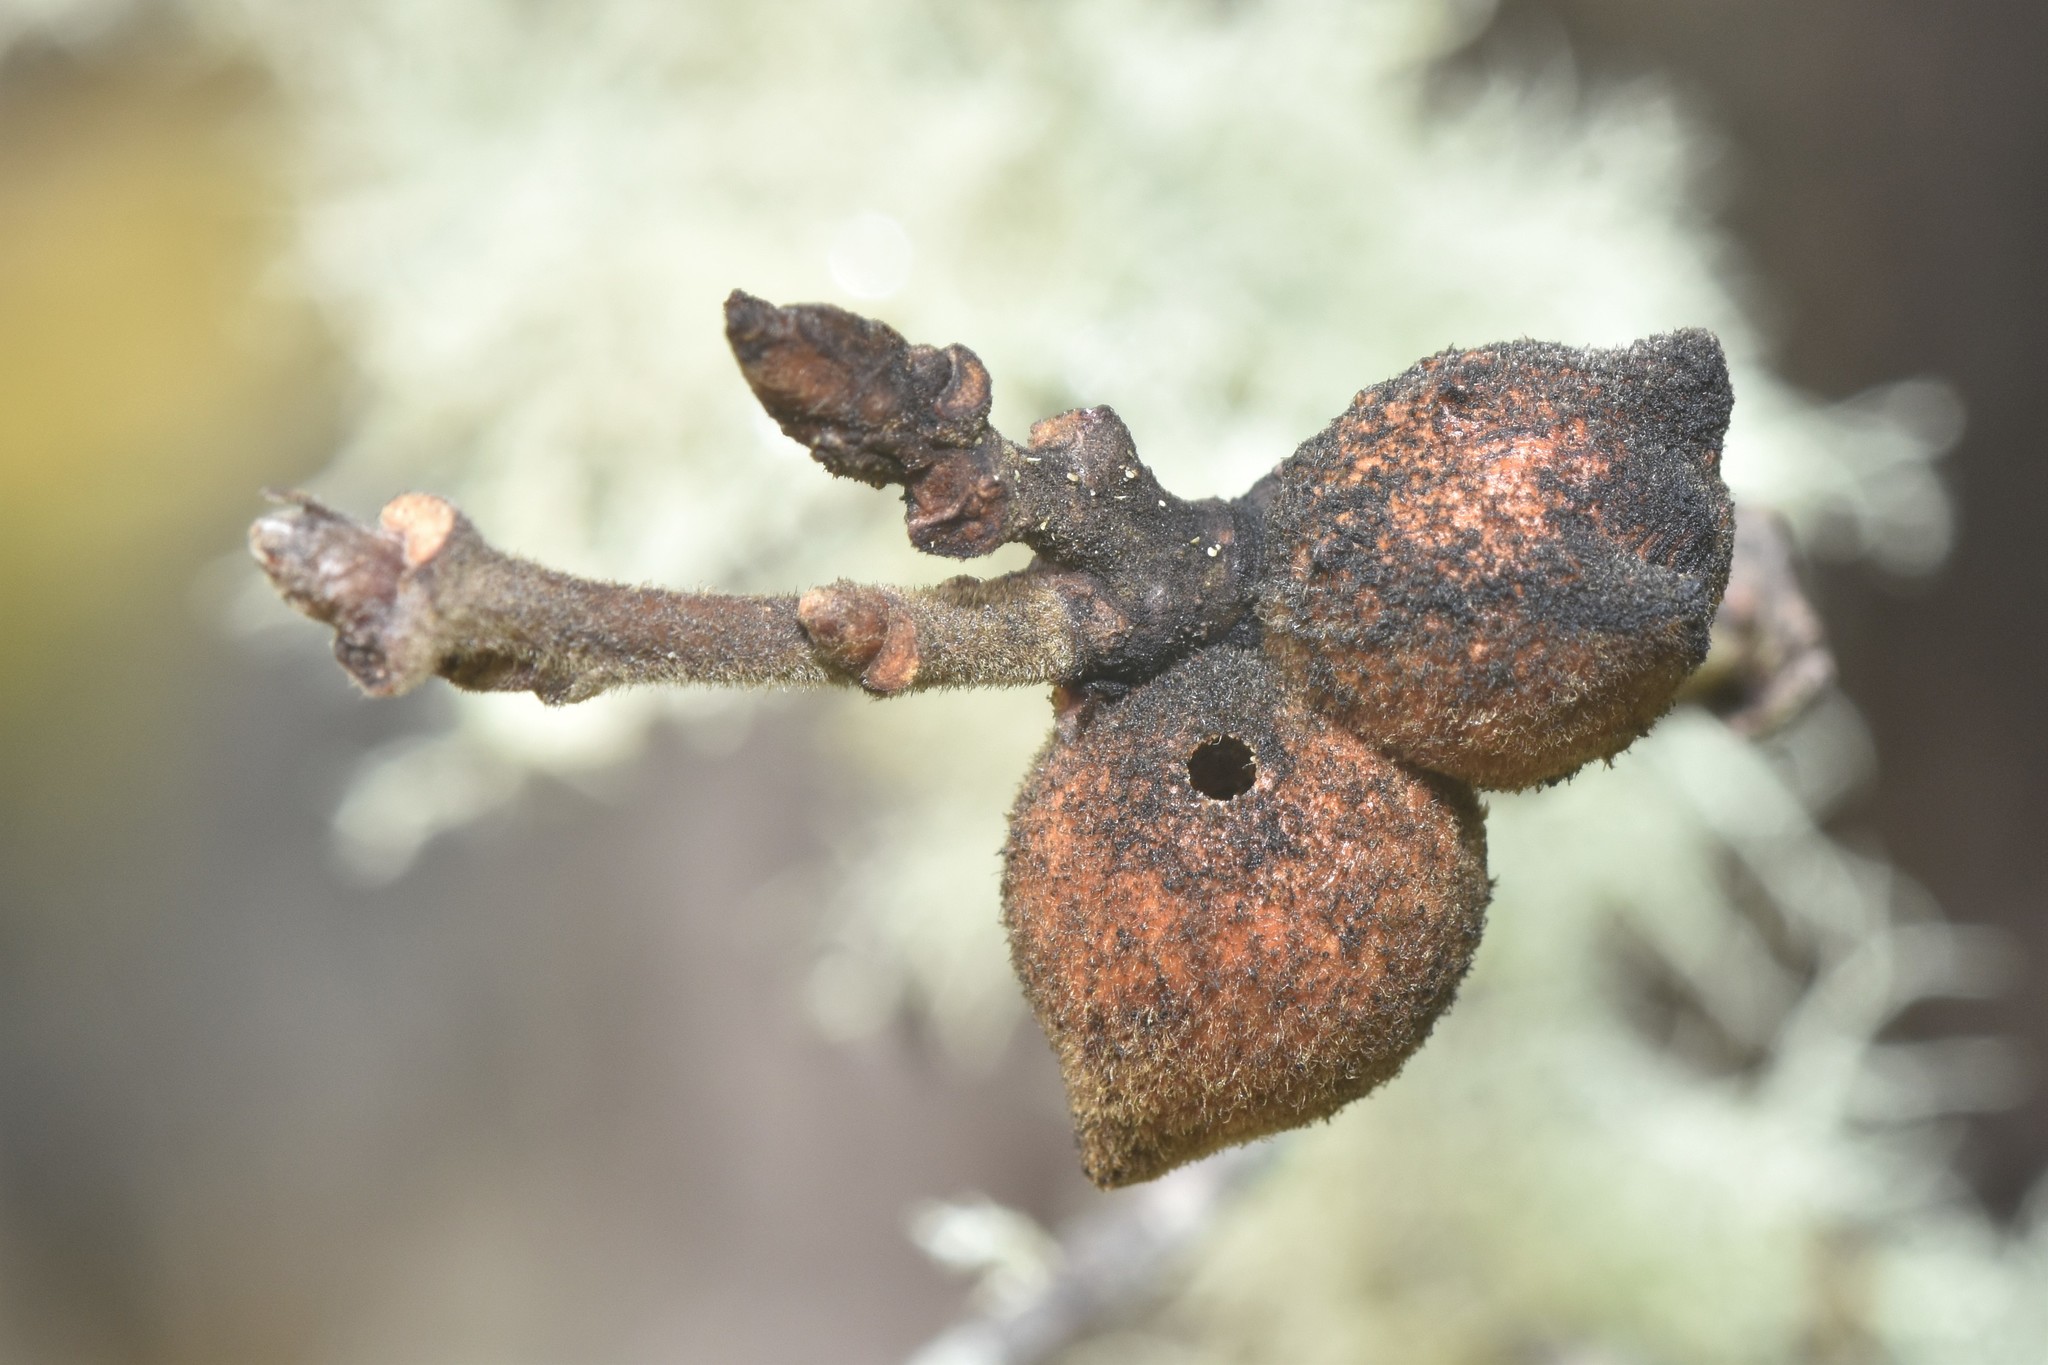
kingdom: Animalia
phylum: Arthropoda
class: Insecta
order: Hymenoptera
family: Cynipidae
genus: Disholcaspis
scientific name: Disholcaspis
